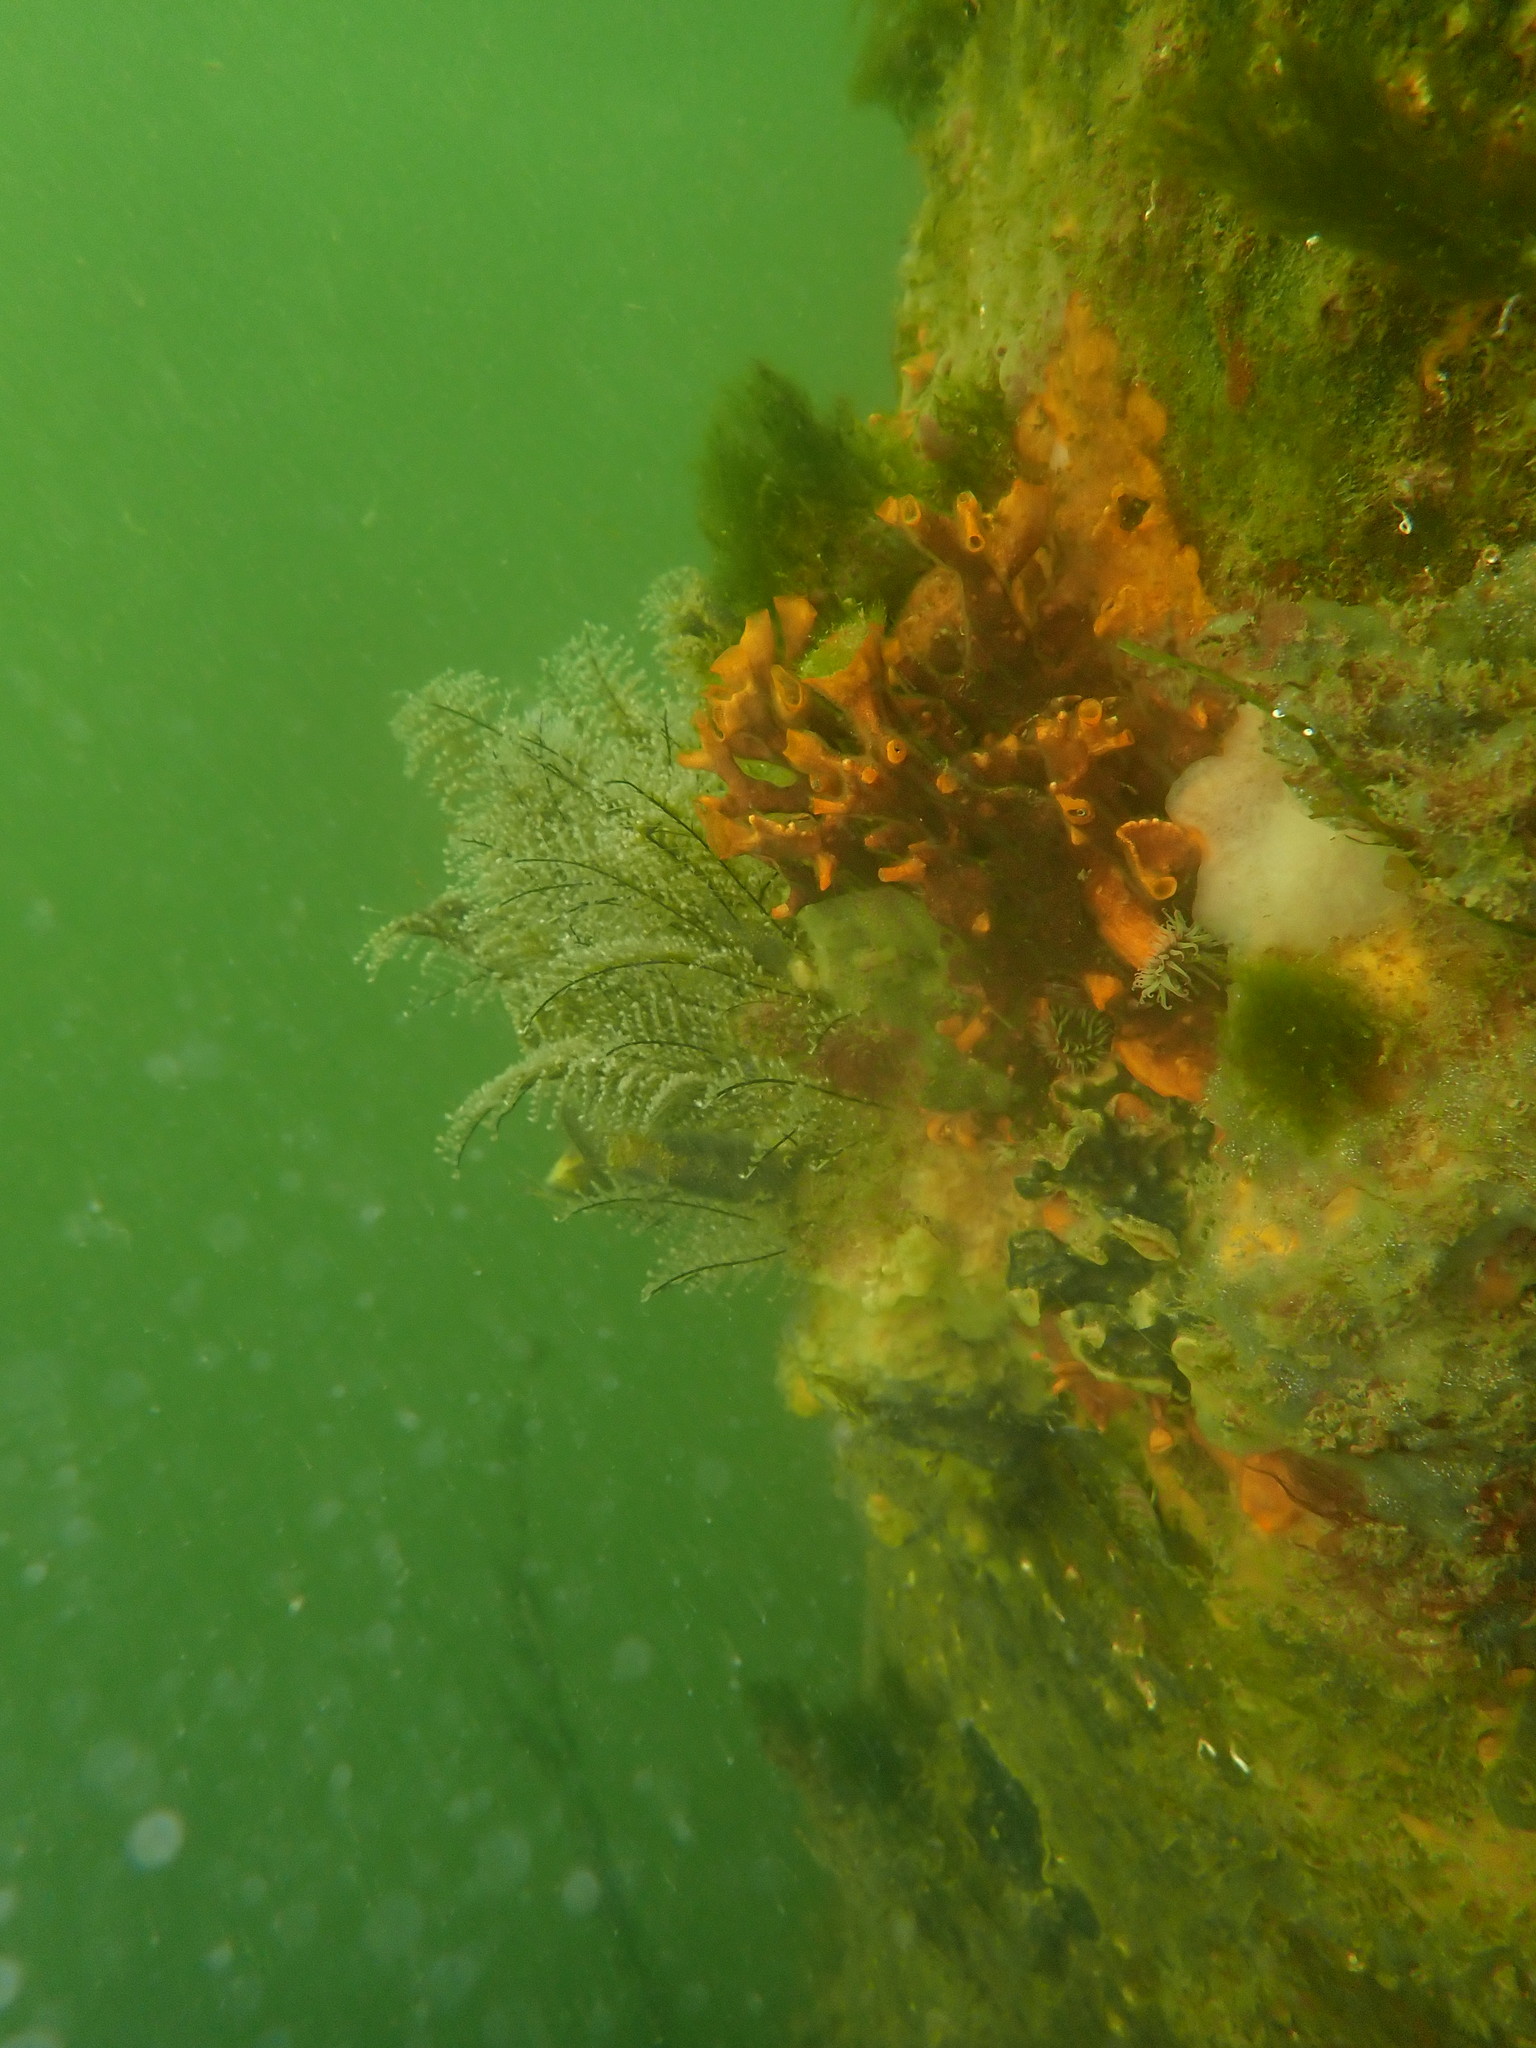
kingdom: Animalia
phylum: Cnidaria
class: Hydrozoa
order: Anthoathecata
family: Pennariidae
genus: Pennaria
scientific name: Pennaria disticha
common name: Feather hydroid
